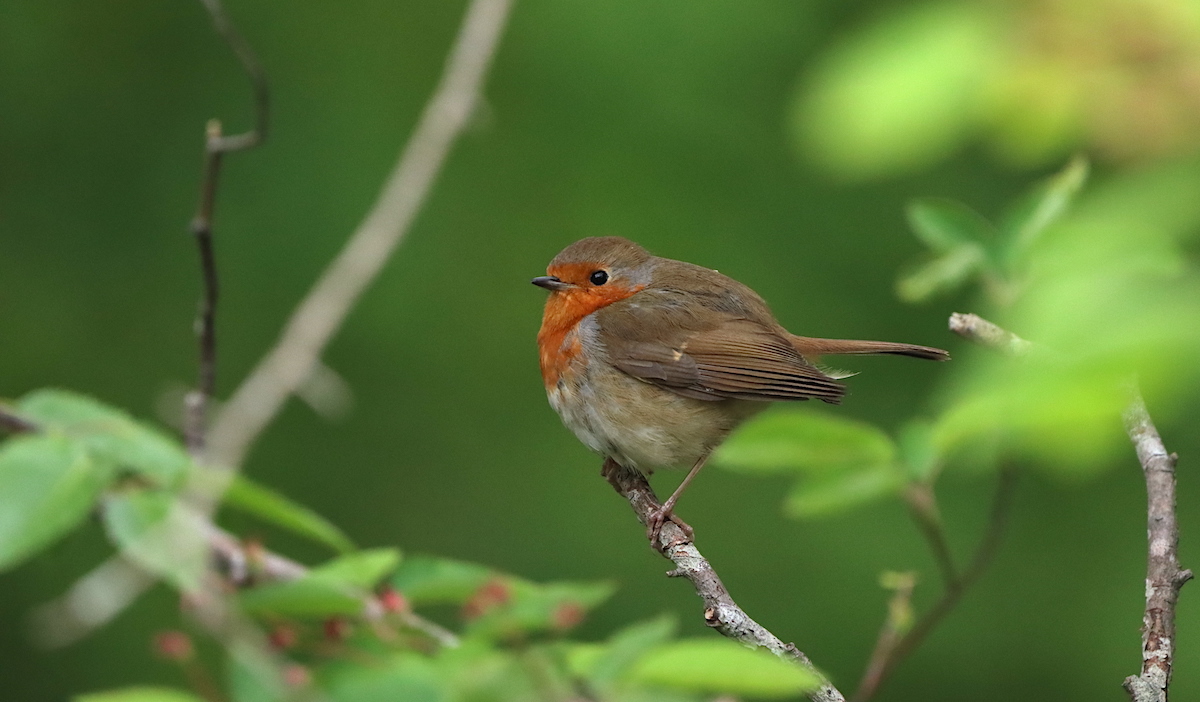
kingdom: Animalia
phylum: Chordata
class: Aves
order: Passeriformes
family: Muscicapidae
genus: Erithacus
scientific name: Erithacus rubecula
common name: European robin
